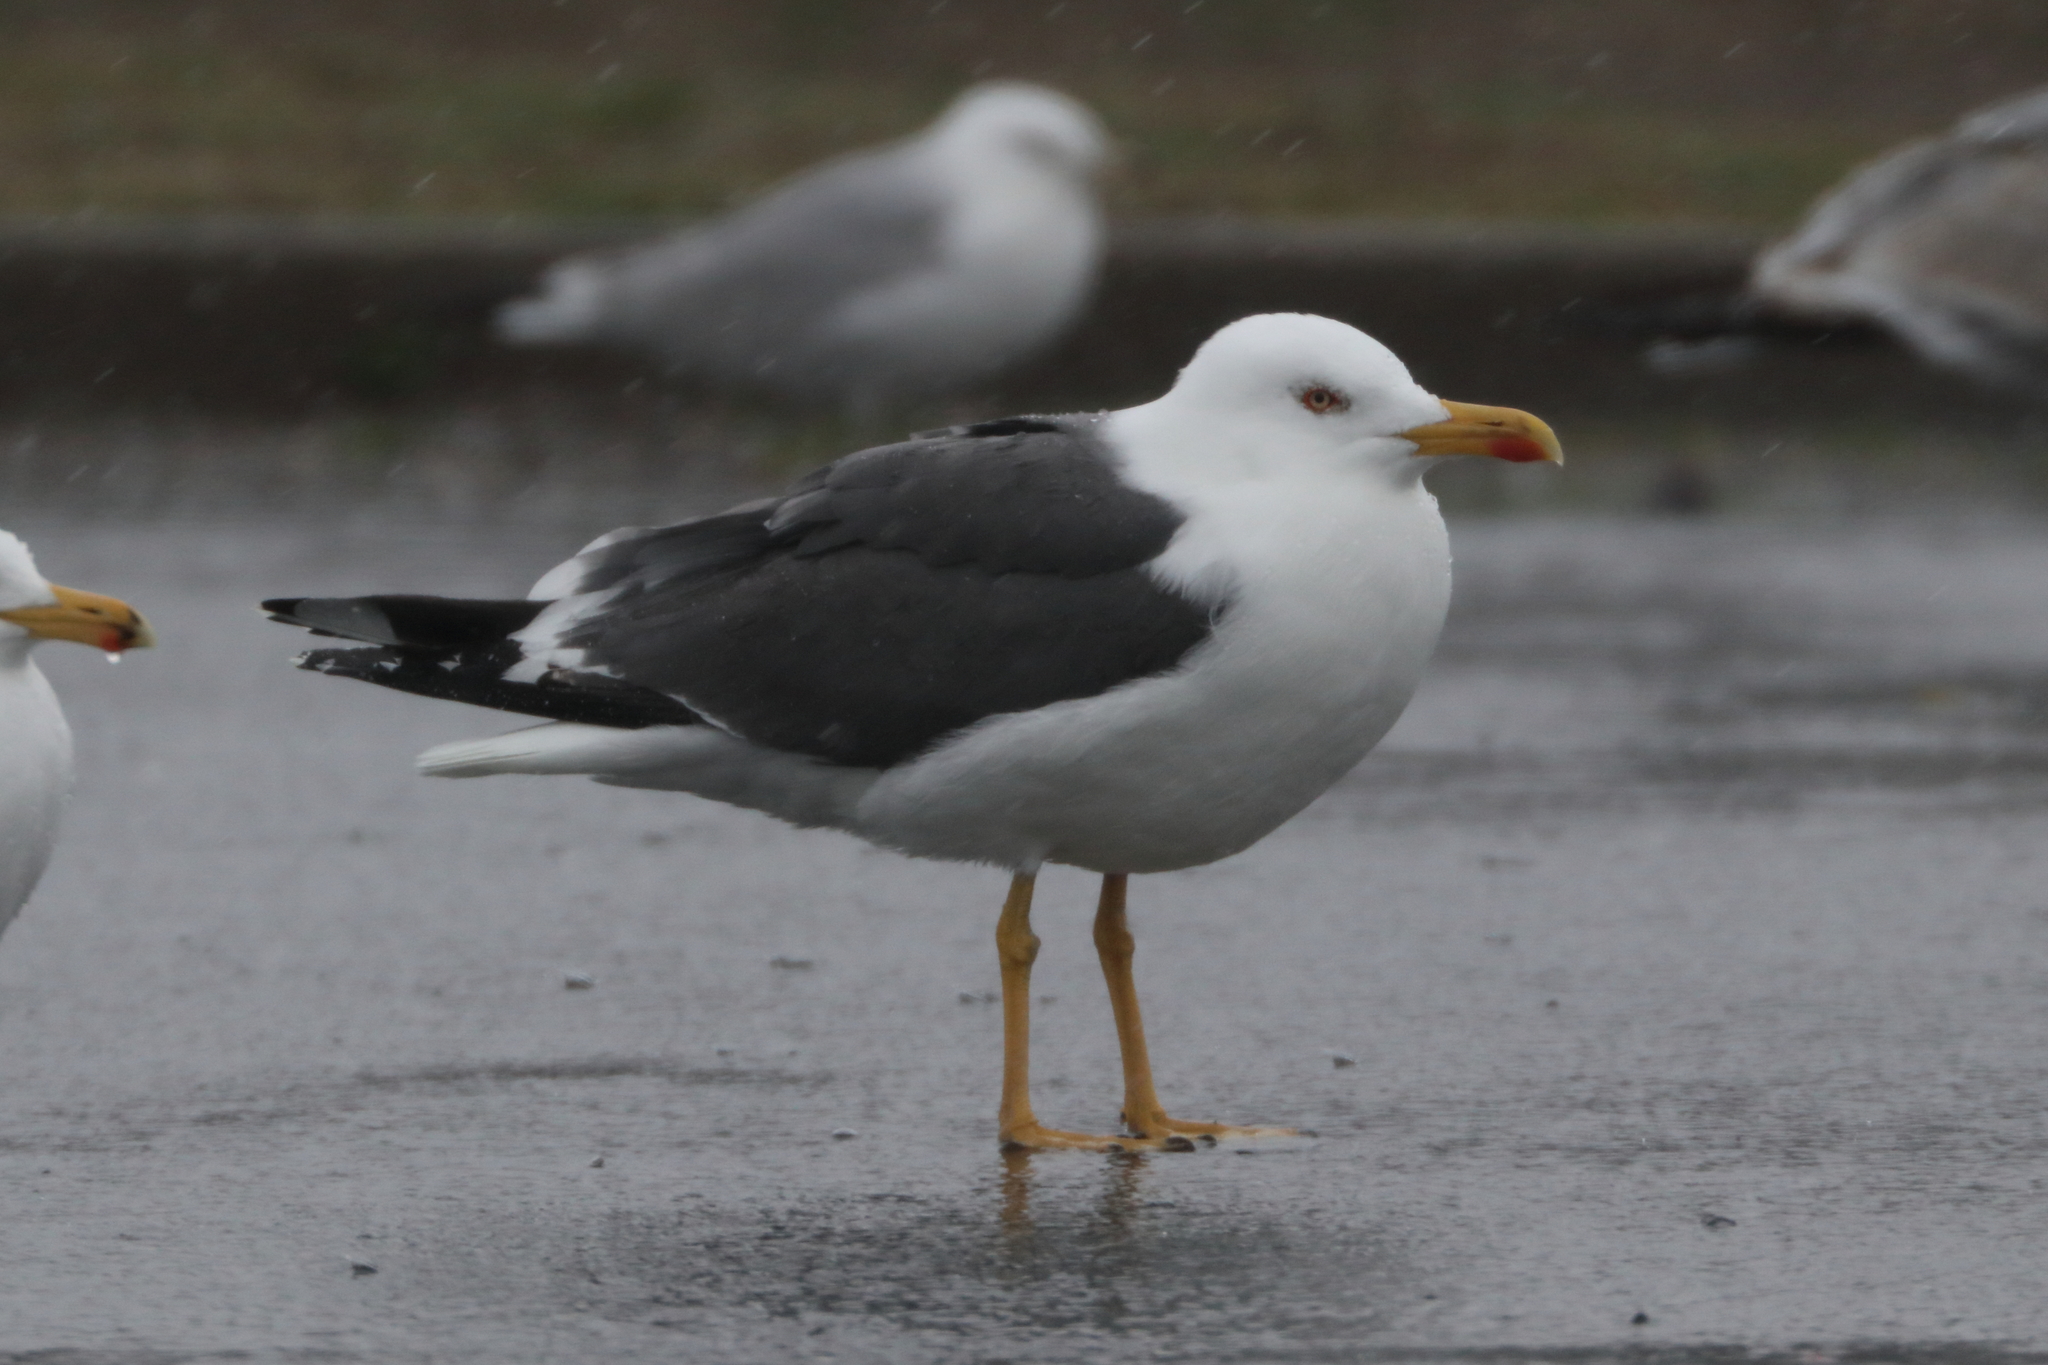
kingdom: Animalia
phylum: Chordata
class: Aves
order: Charadriiformes
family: Laridae
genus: Larus
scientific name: Larus fuscus
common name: Lesser black-backed gull
